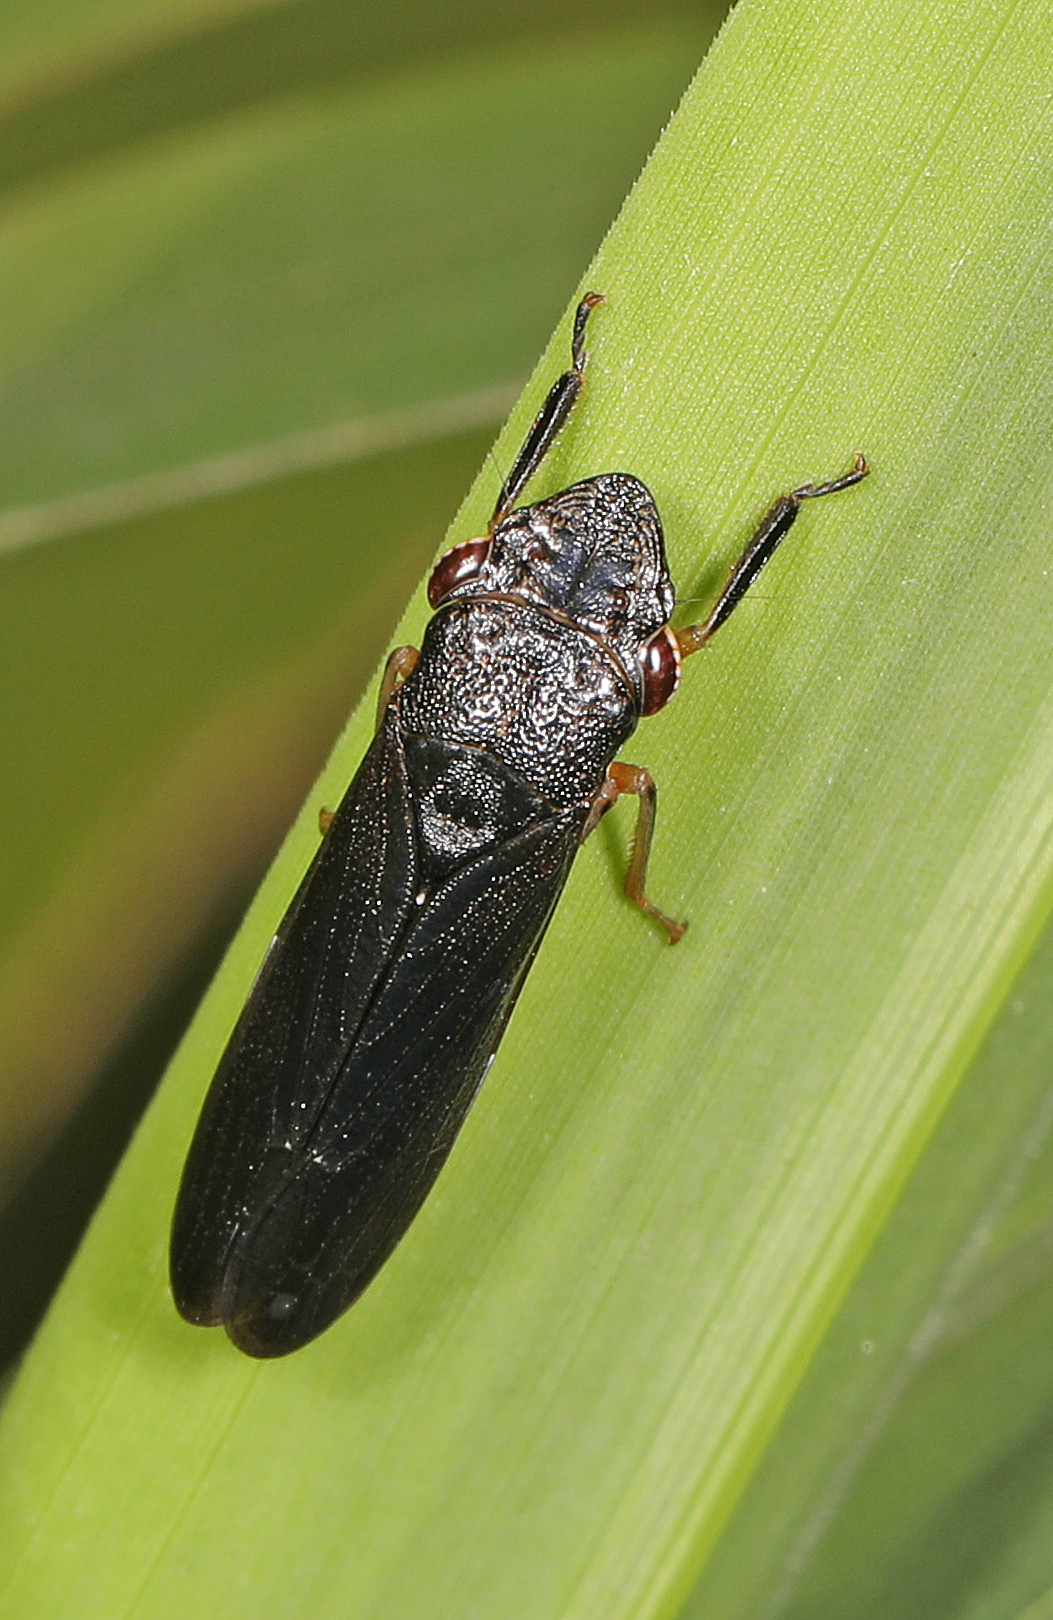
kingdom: Animalia
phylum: Arthropoda
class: Insecta
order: Hemiptera
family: Cicadellidae
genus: Homalodisca
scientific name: Homalodisca insolita
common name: Johnson grass sharpshooter
